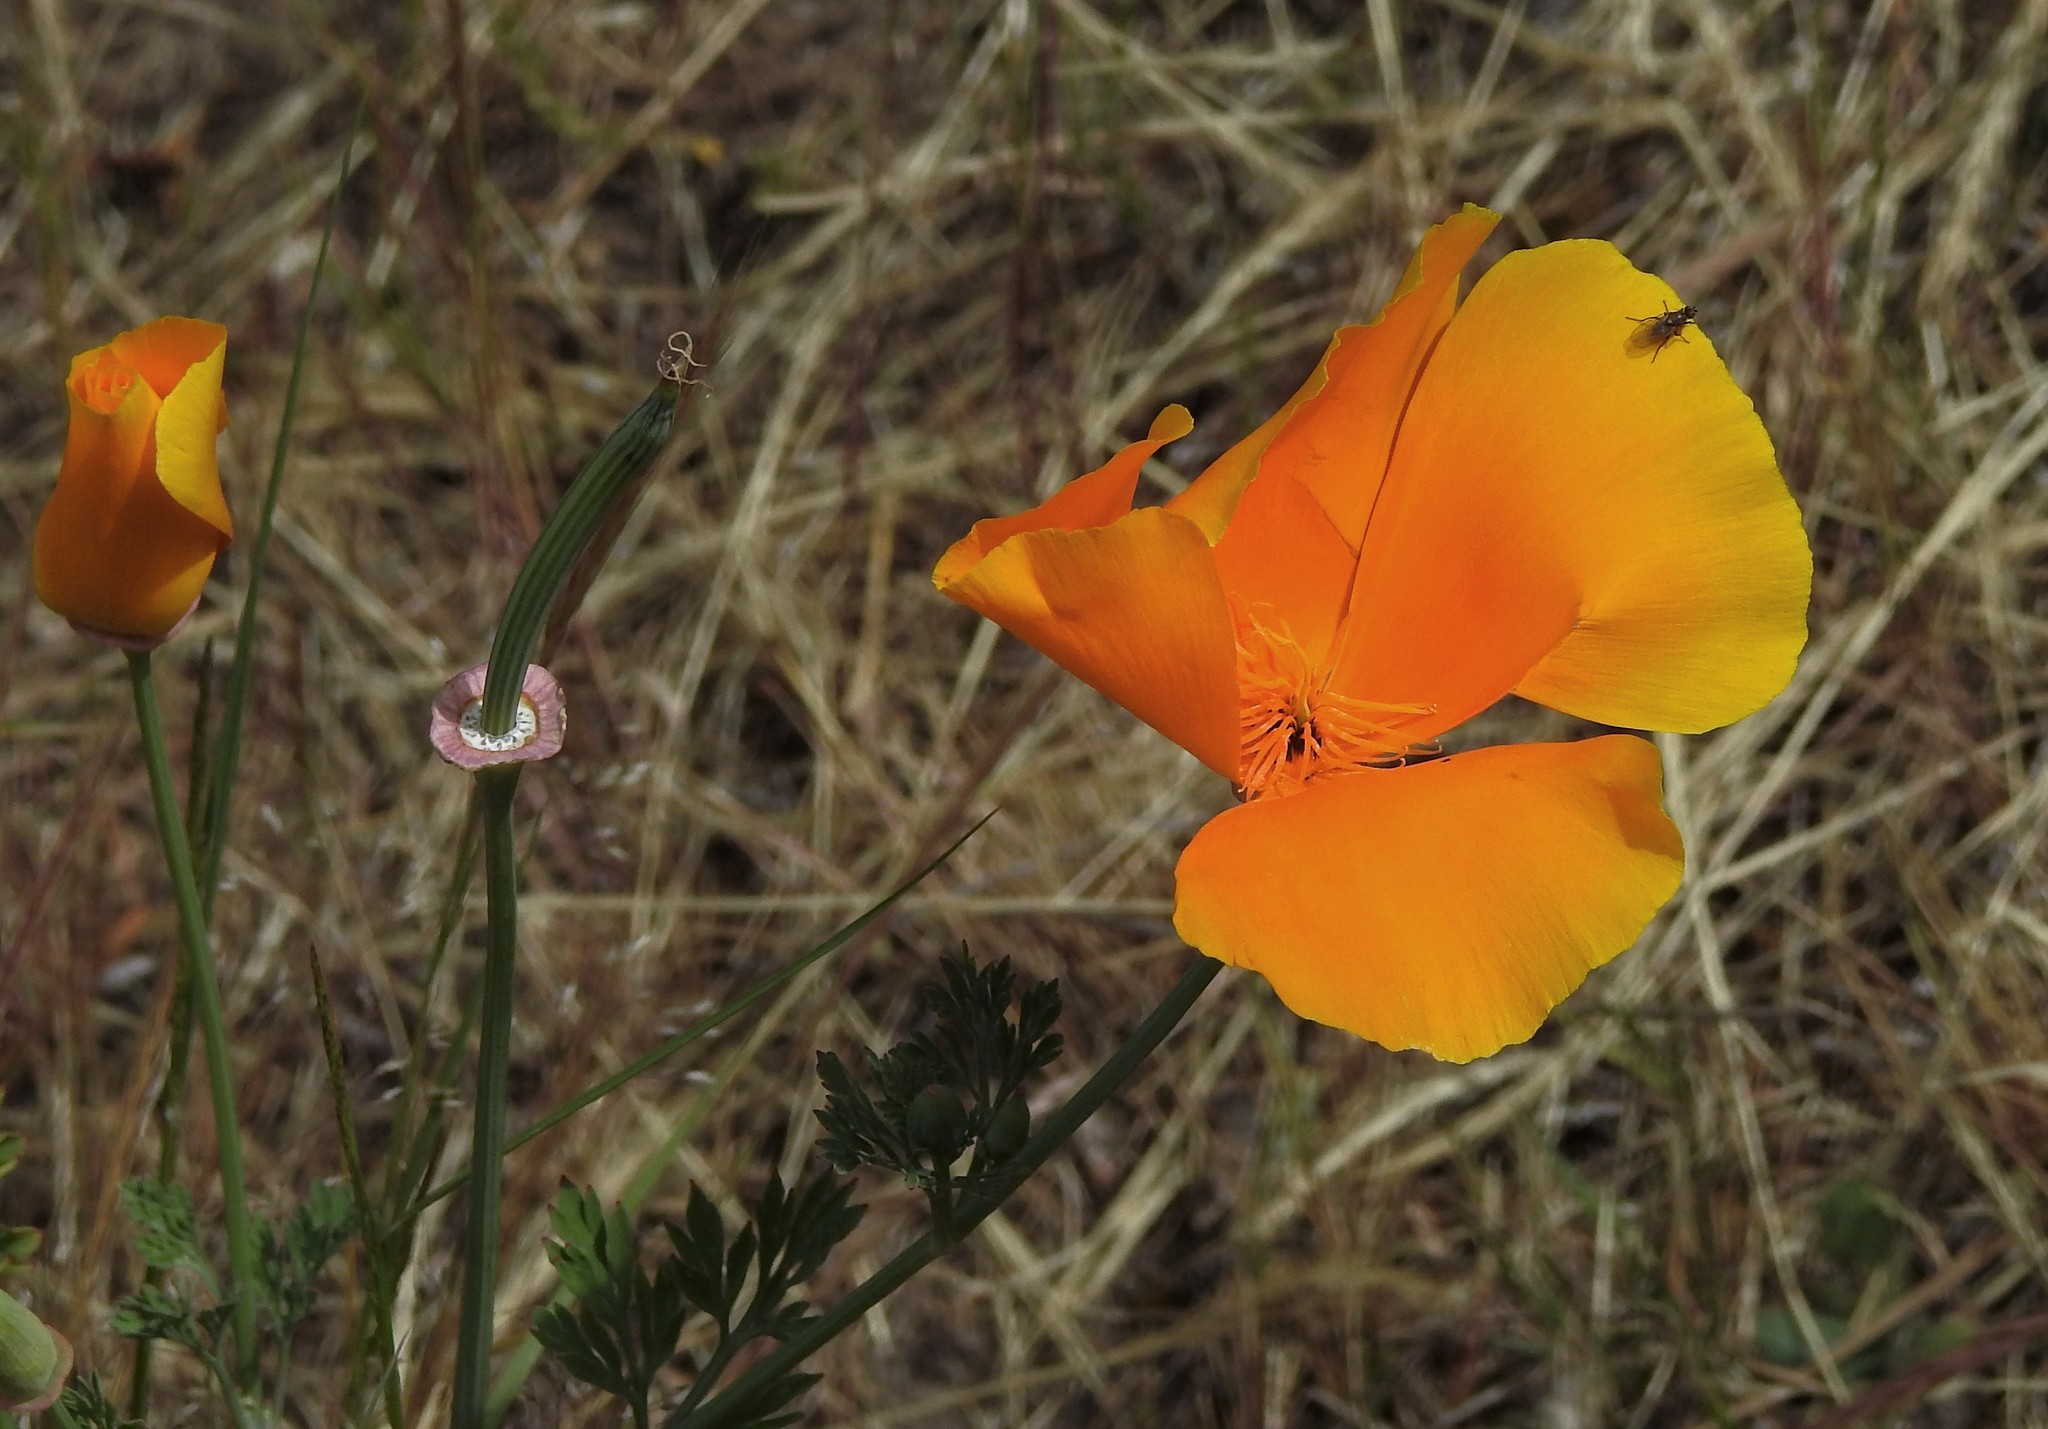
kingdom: Plantae
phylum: Tracheophyta
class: Magnoliopsida
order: Ranunculales
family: Papaveraceae
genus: Eschscholzia
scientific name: Eschscholzia californica
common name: California poppy
